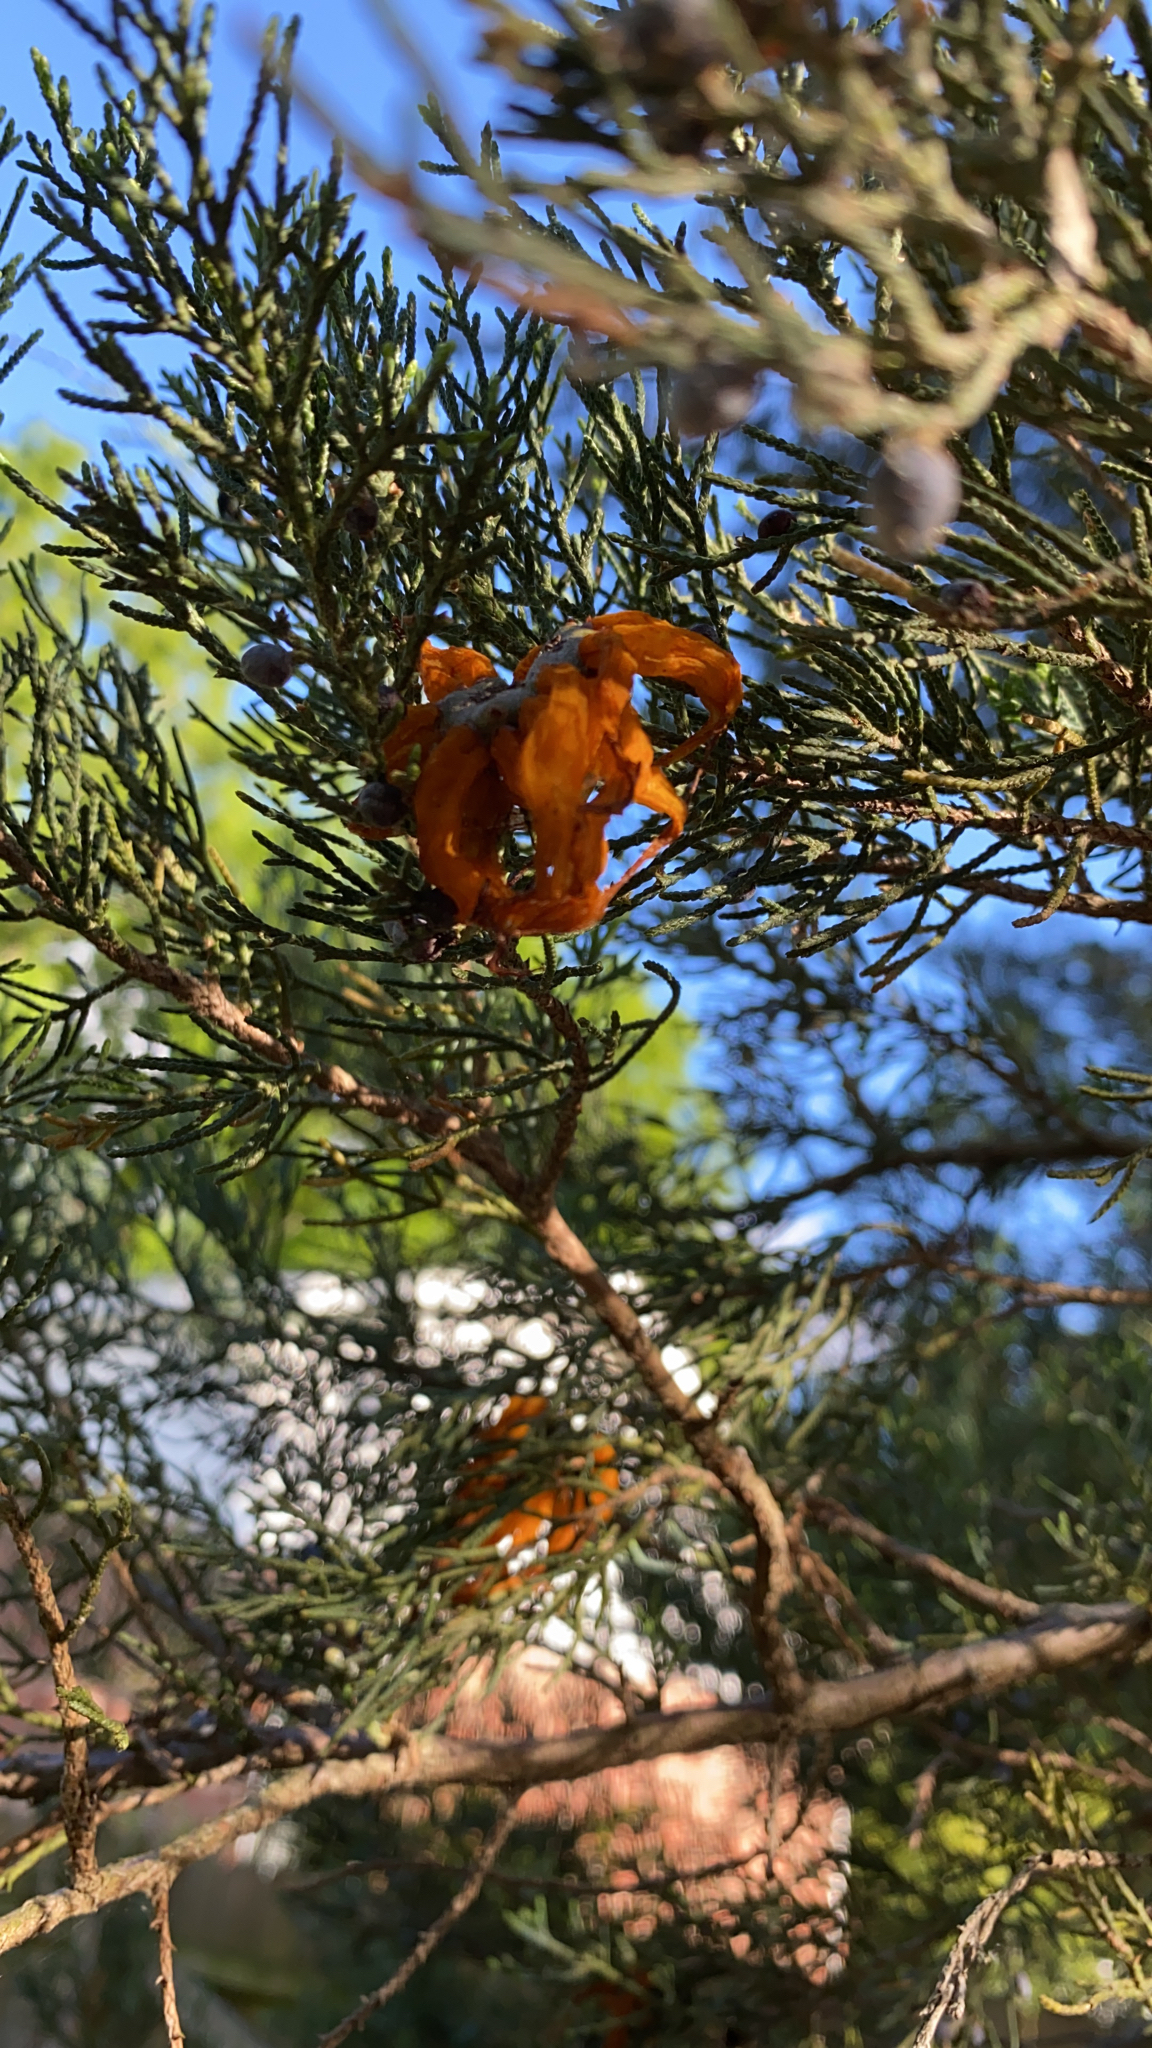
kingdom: Fungi
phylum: Basidiomycota
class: Pucciniomycetes
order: Pucciniales
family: Gymnosporangiaceae
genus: Gymnosporangium
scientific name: Gymnosporangium juniperi-virginianae
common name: Juniper-apple rust
